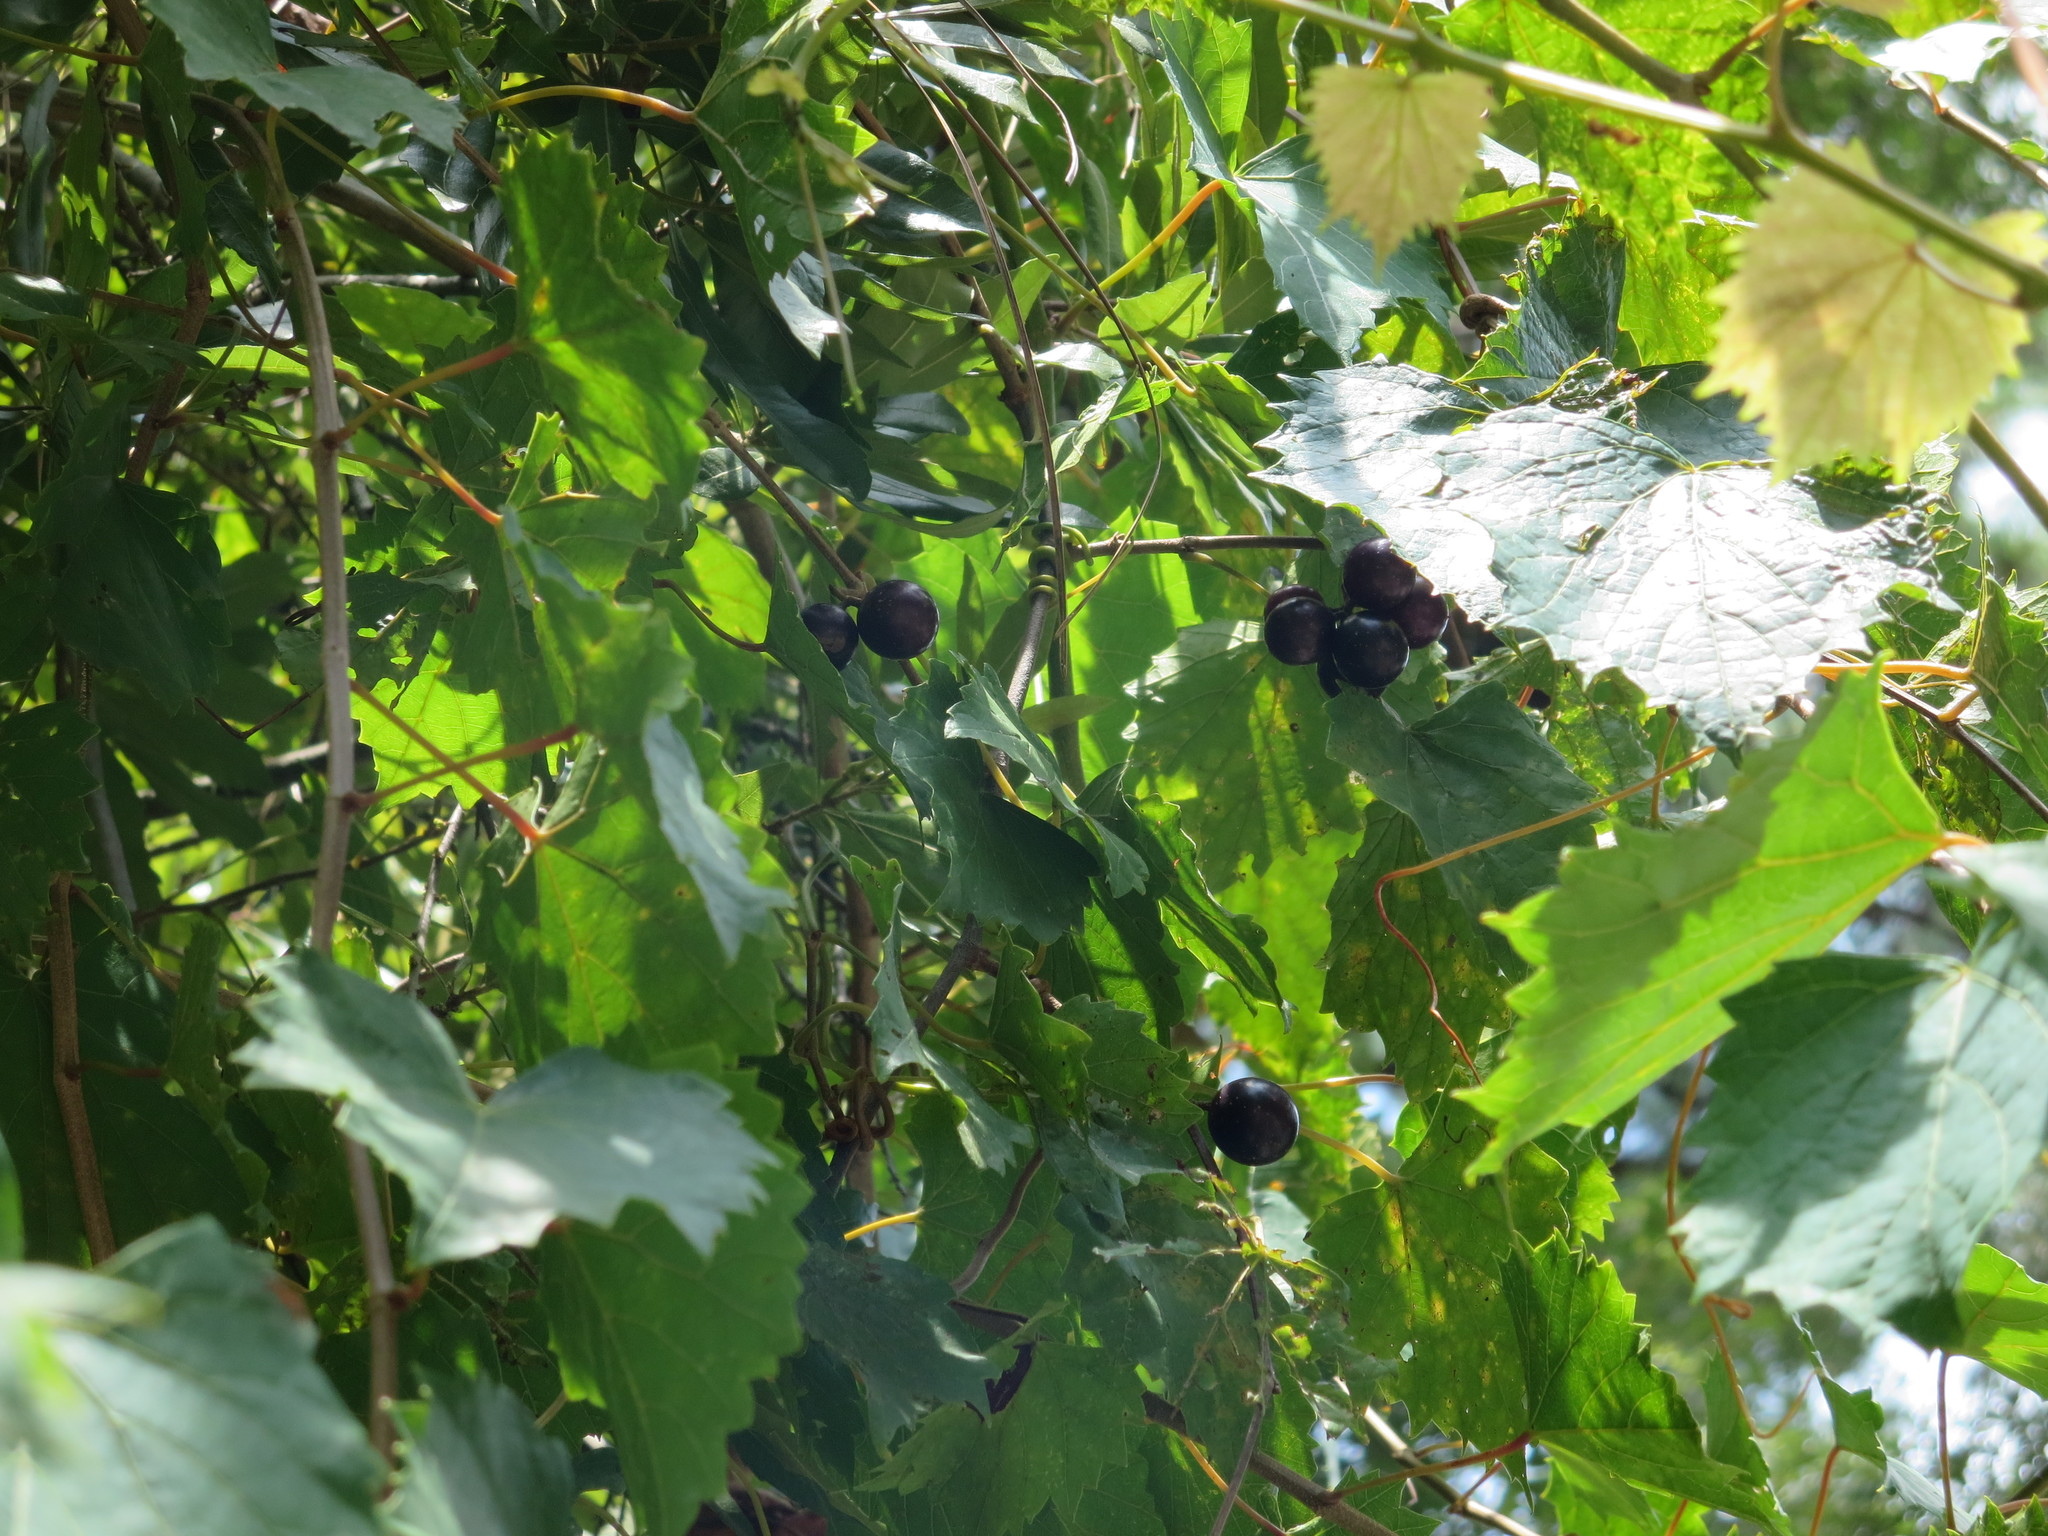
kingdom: Plantae
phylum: Tracheophyta
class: Magnoliopsida
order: Vitales
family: Vitaceae
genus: Vitis
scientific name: Vitis rotundifolia
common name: Muscadine grape
